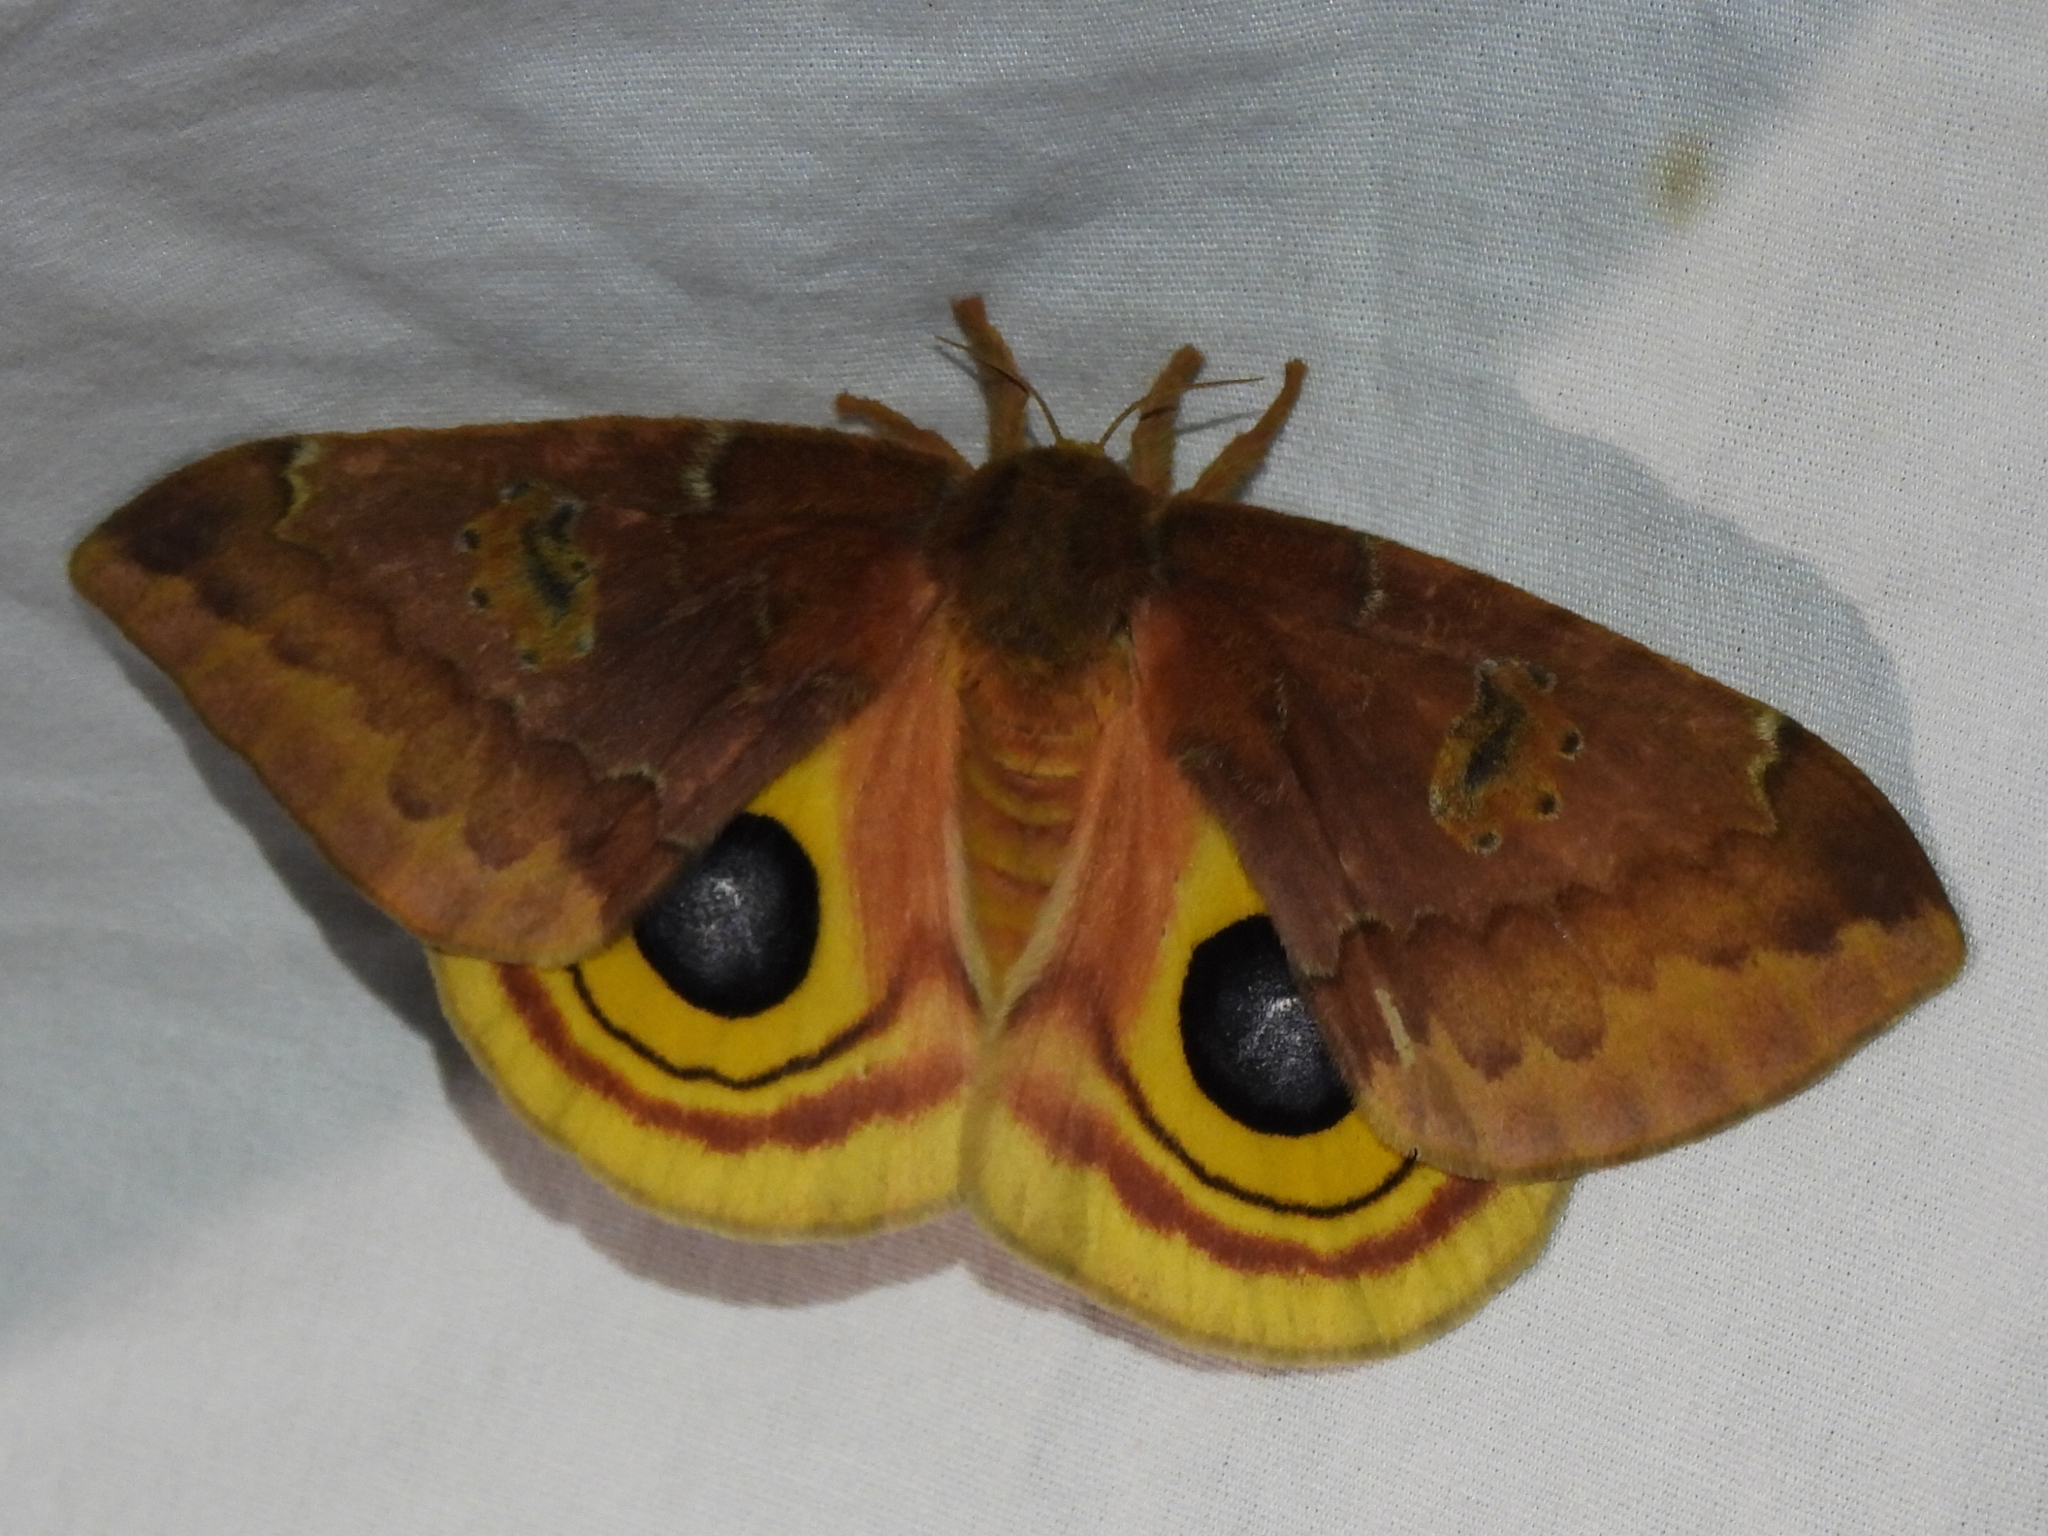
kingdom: Animalia
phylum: Arthropoda
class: Insecta
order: Lepidoptera
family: Saturniidae
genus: Automeris
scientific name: Automeris io
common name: Io moth
